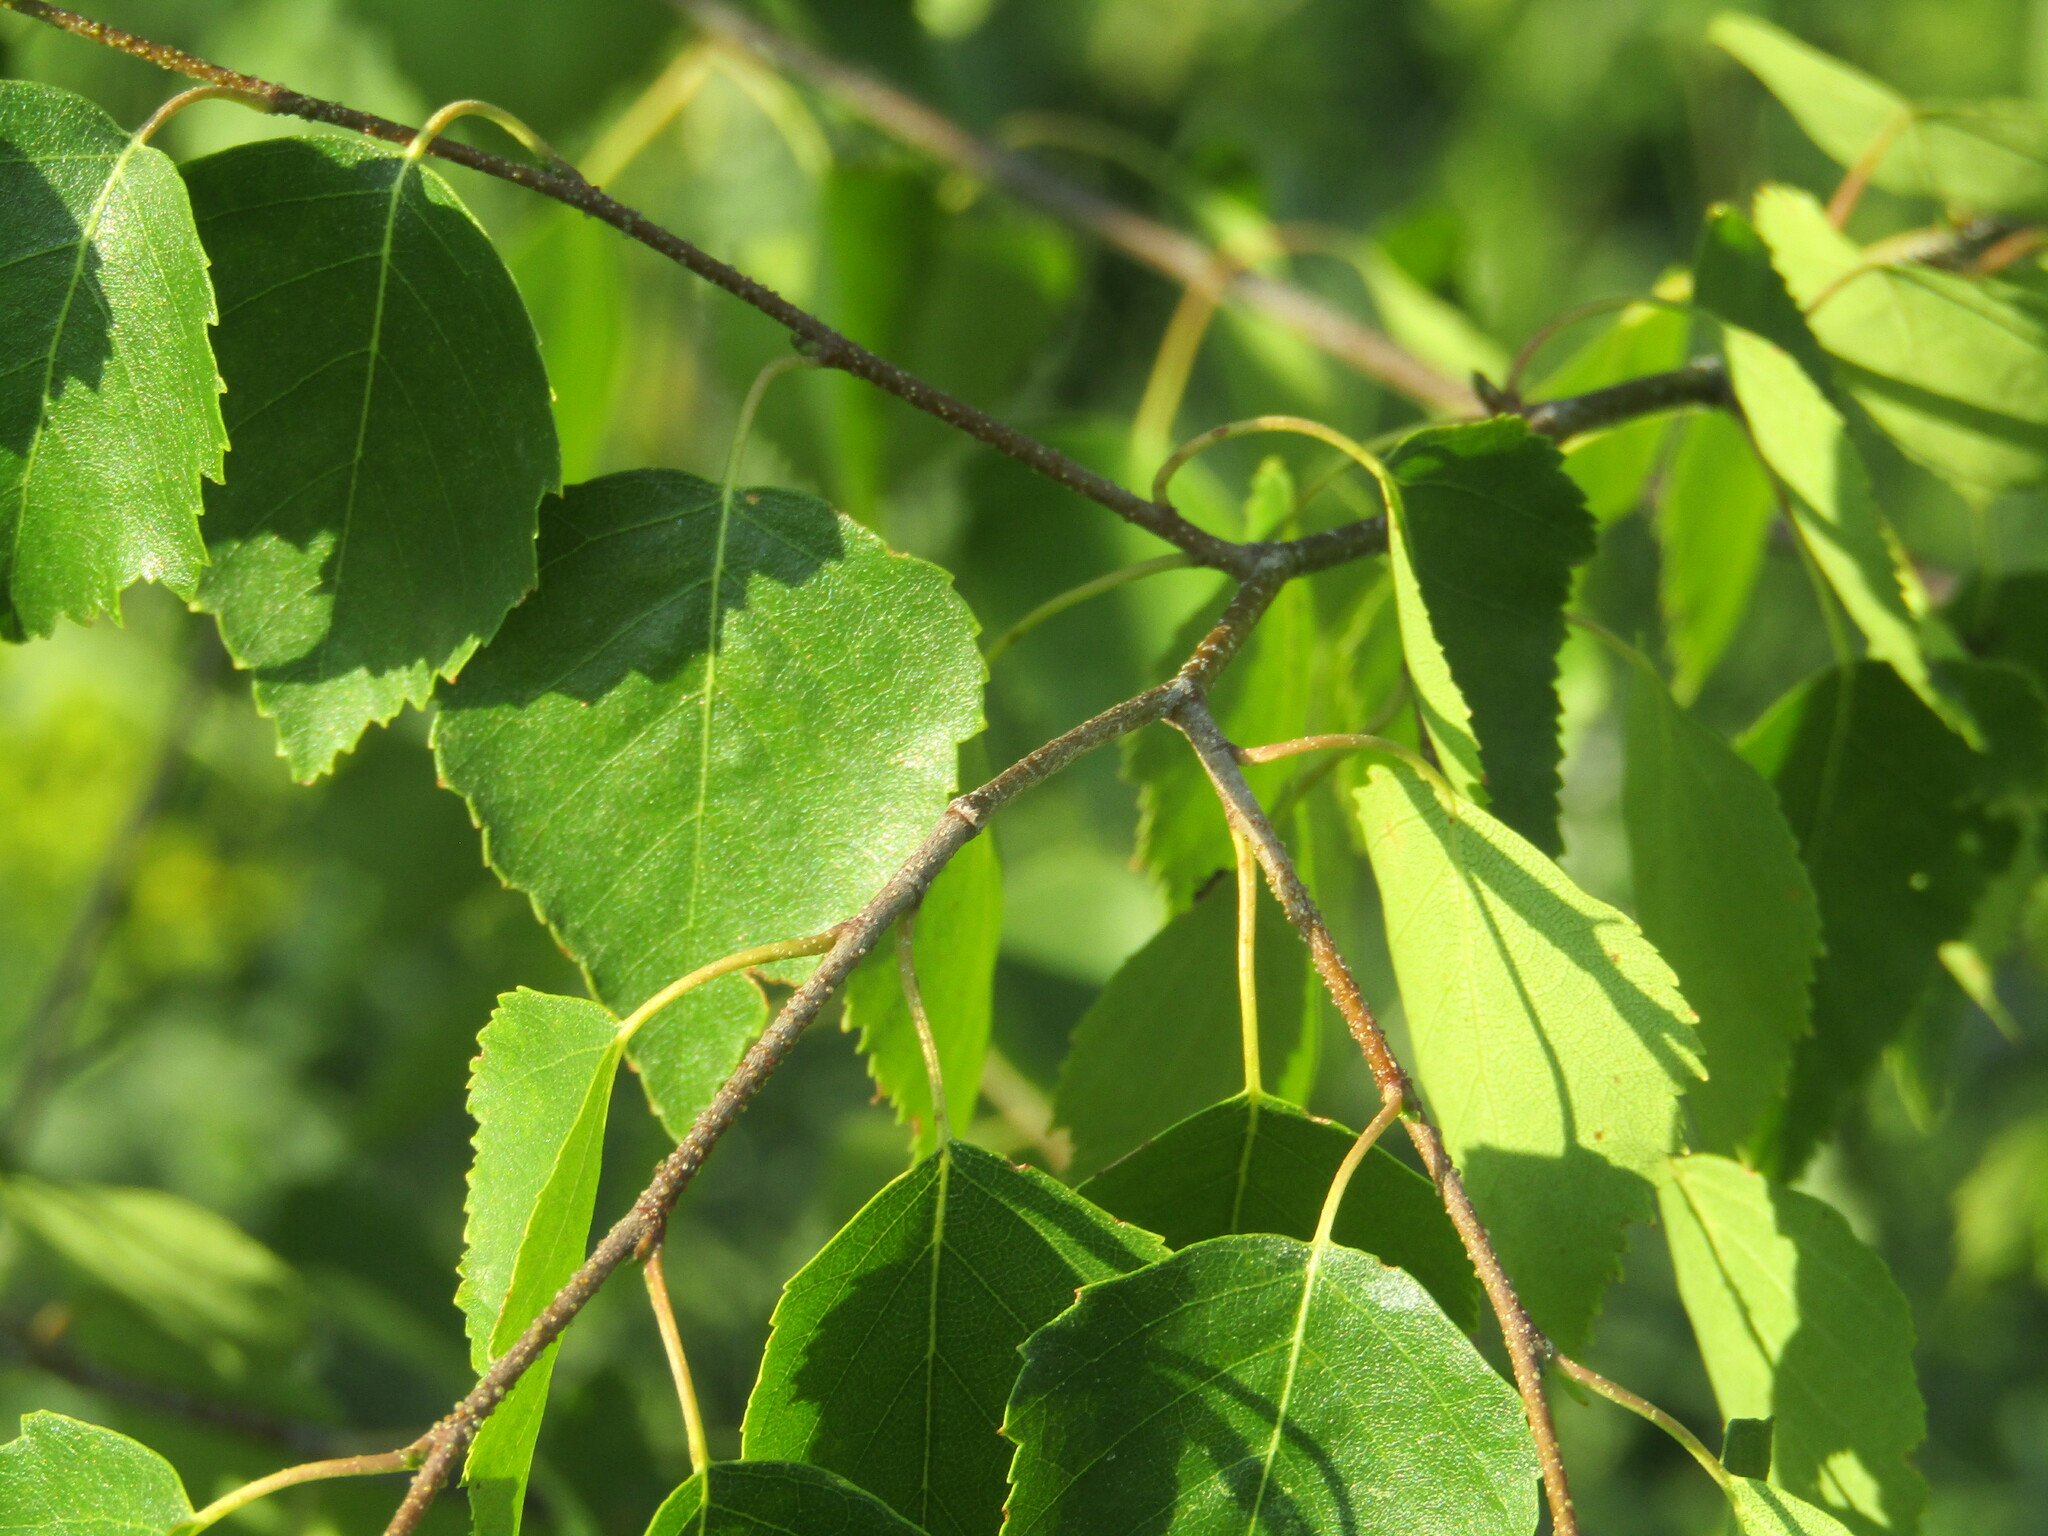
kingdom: Plantae
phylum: Tracheophyta
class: Magnoliopsida
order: Fagales
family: Betulaceae
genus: Betula
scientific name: Betula pendula
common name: Silver birch
